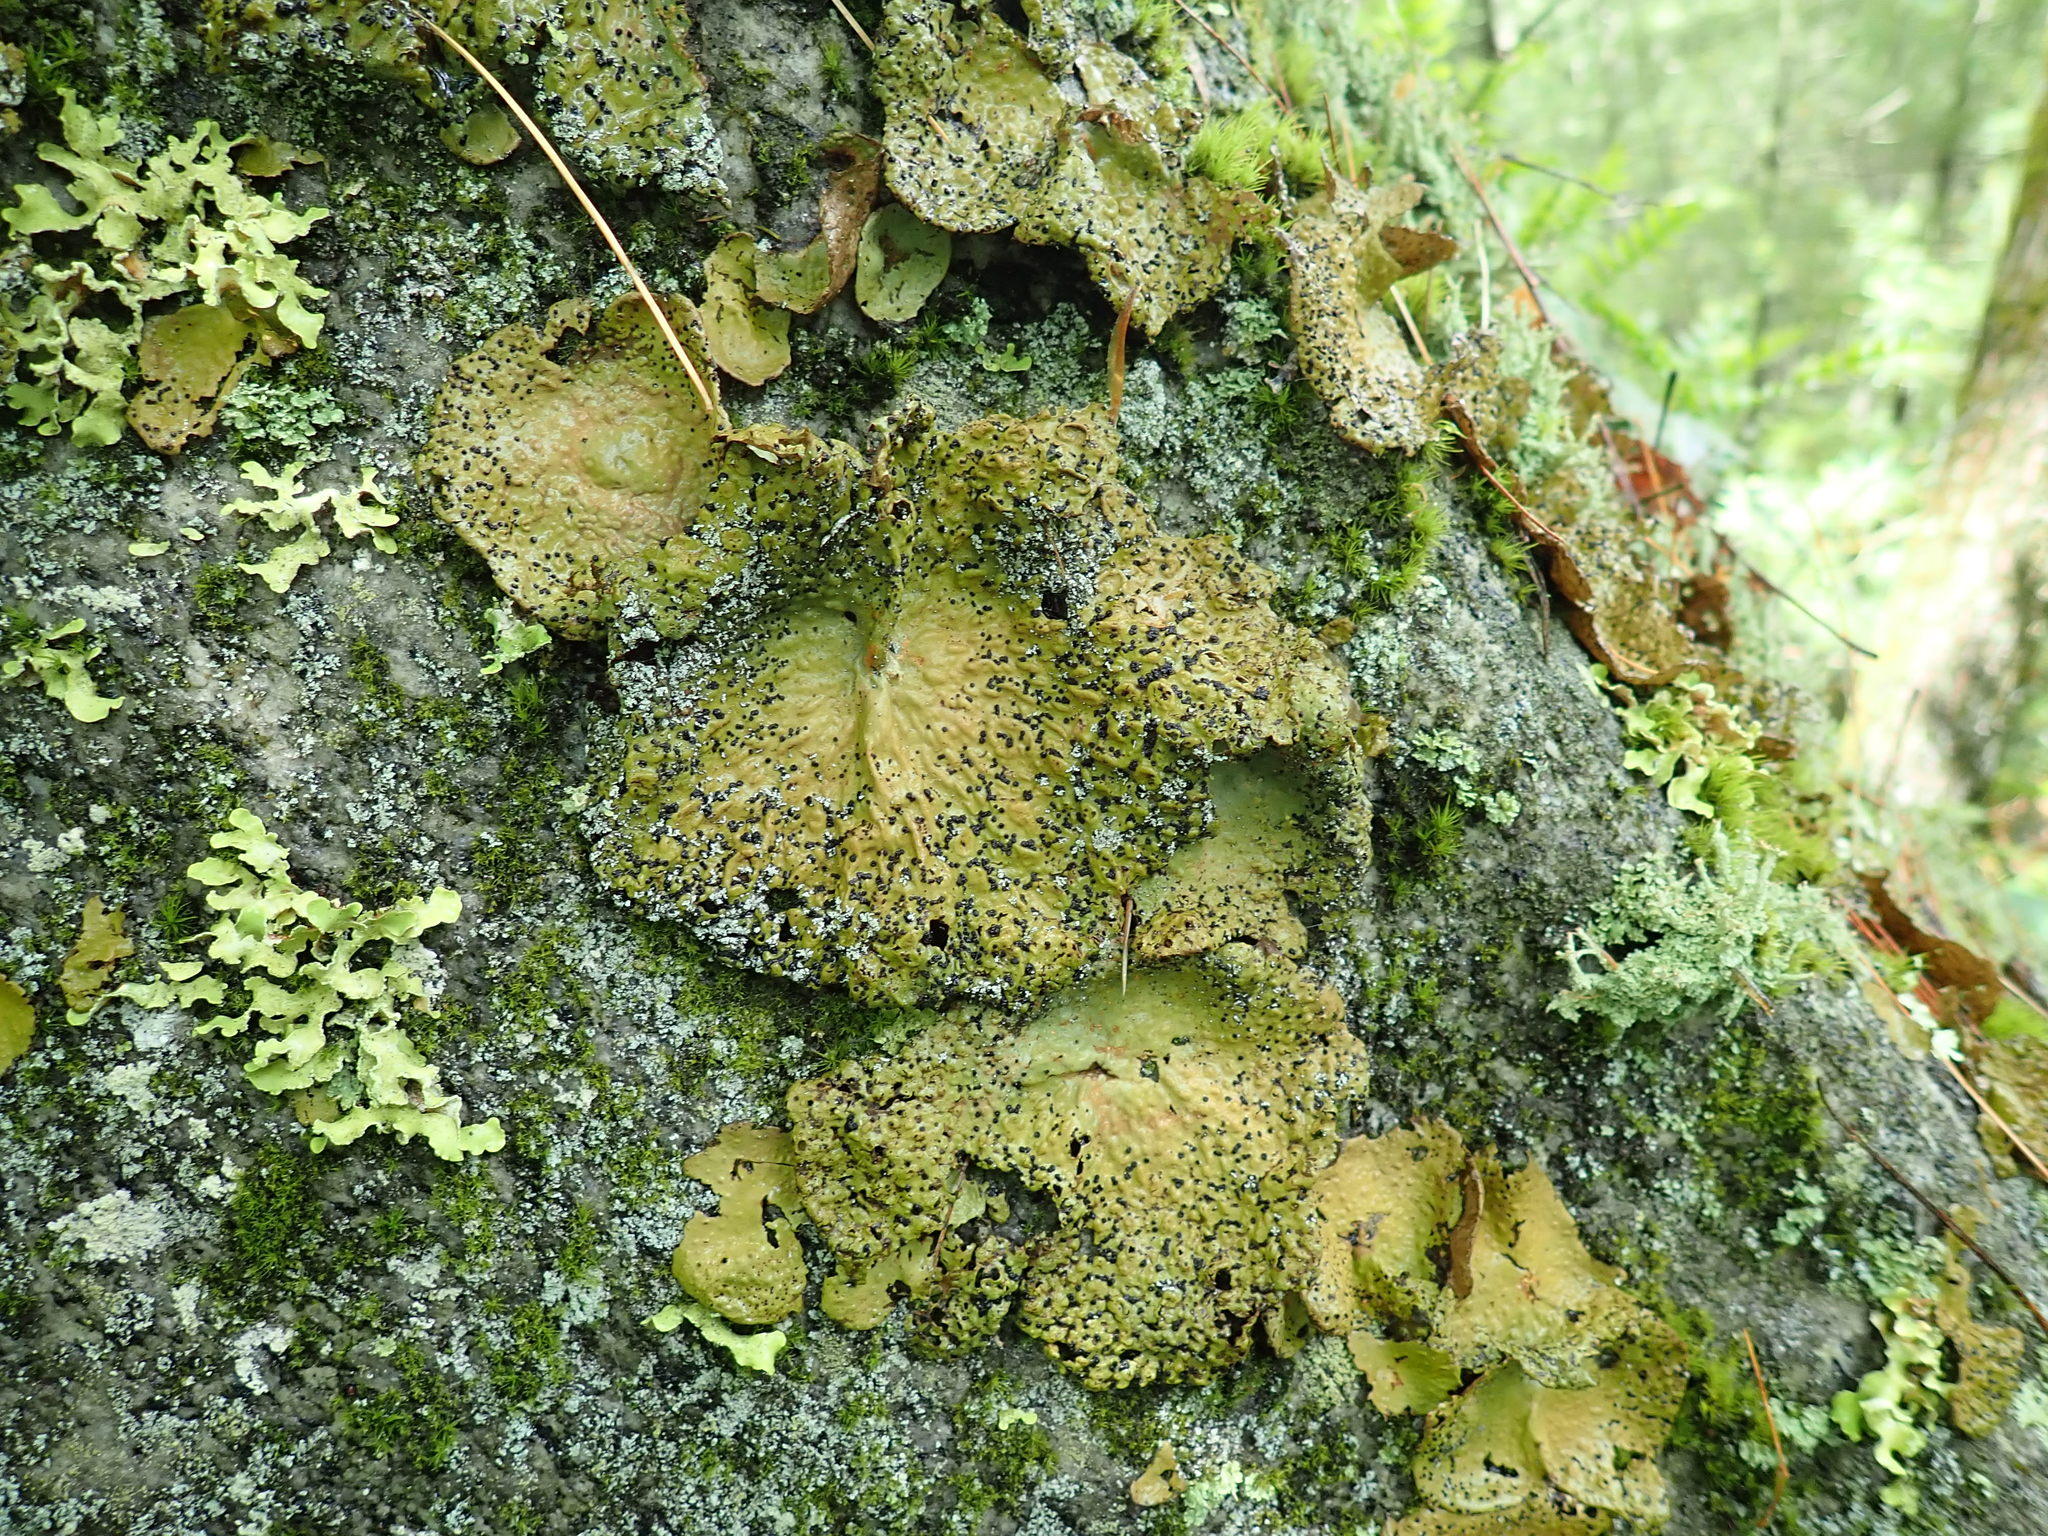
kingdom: Fungi
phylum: Ascomycota
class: Lecanoromycetes
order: Umbilicariales
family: Umbilicariaceae
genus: Lasallia
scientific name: Lasallia papulosa
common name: Common toadskin lichen
